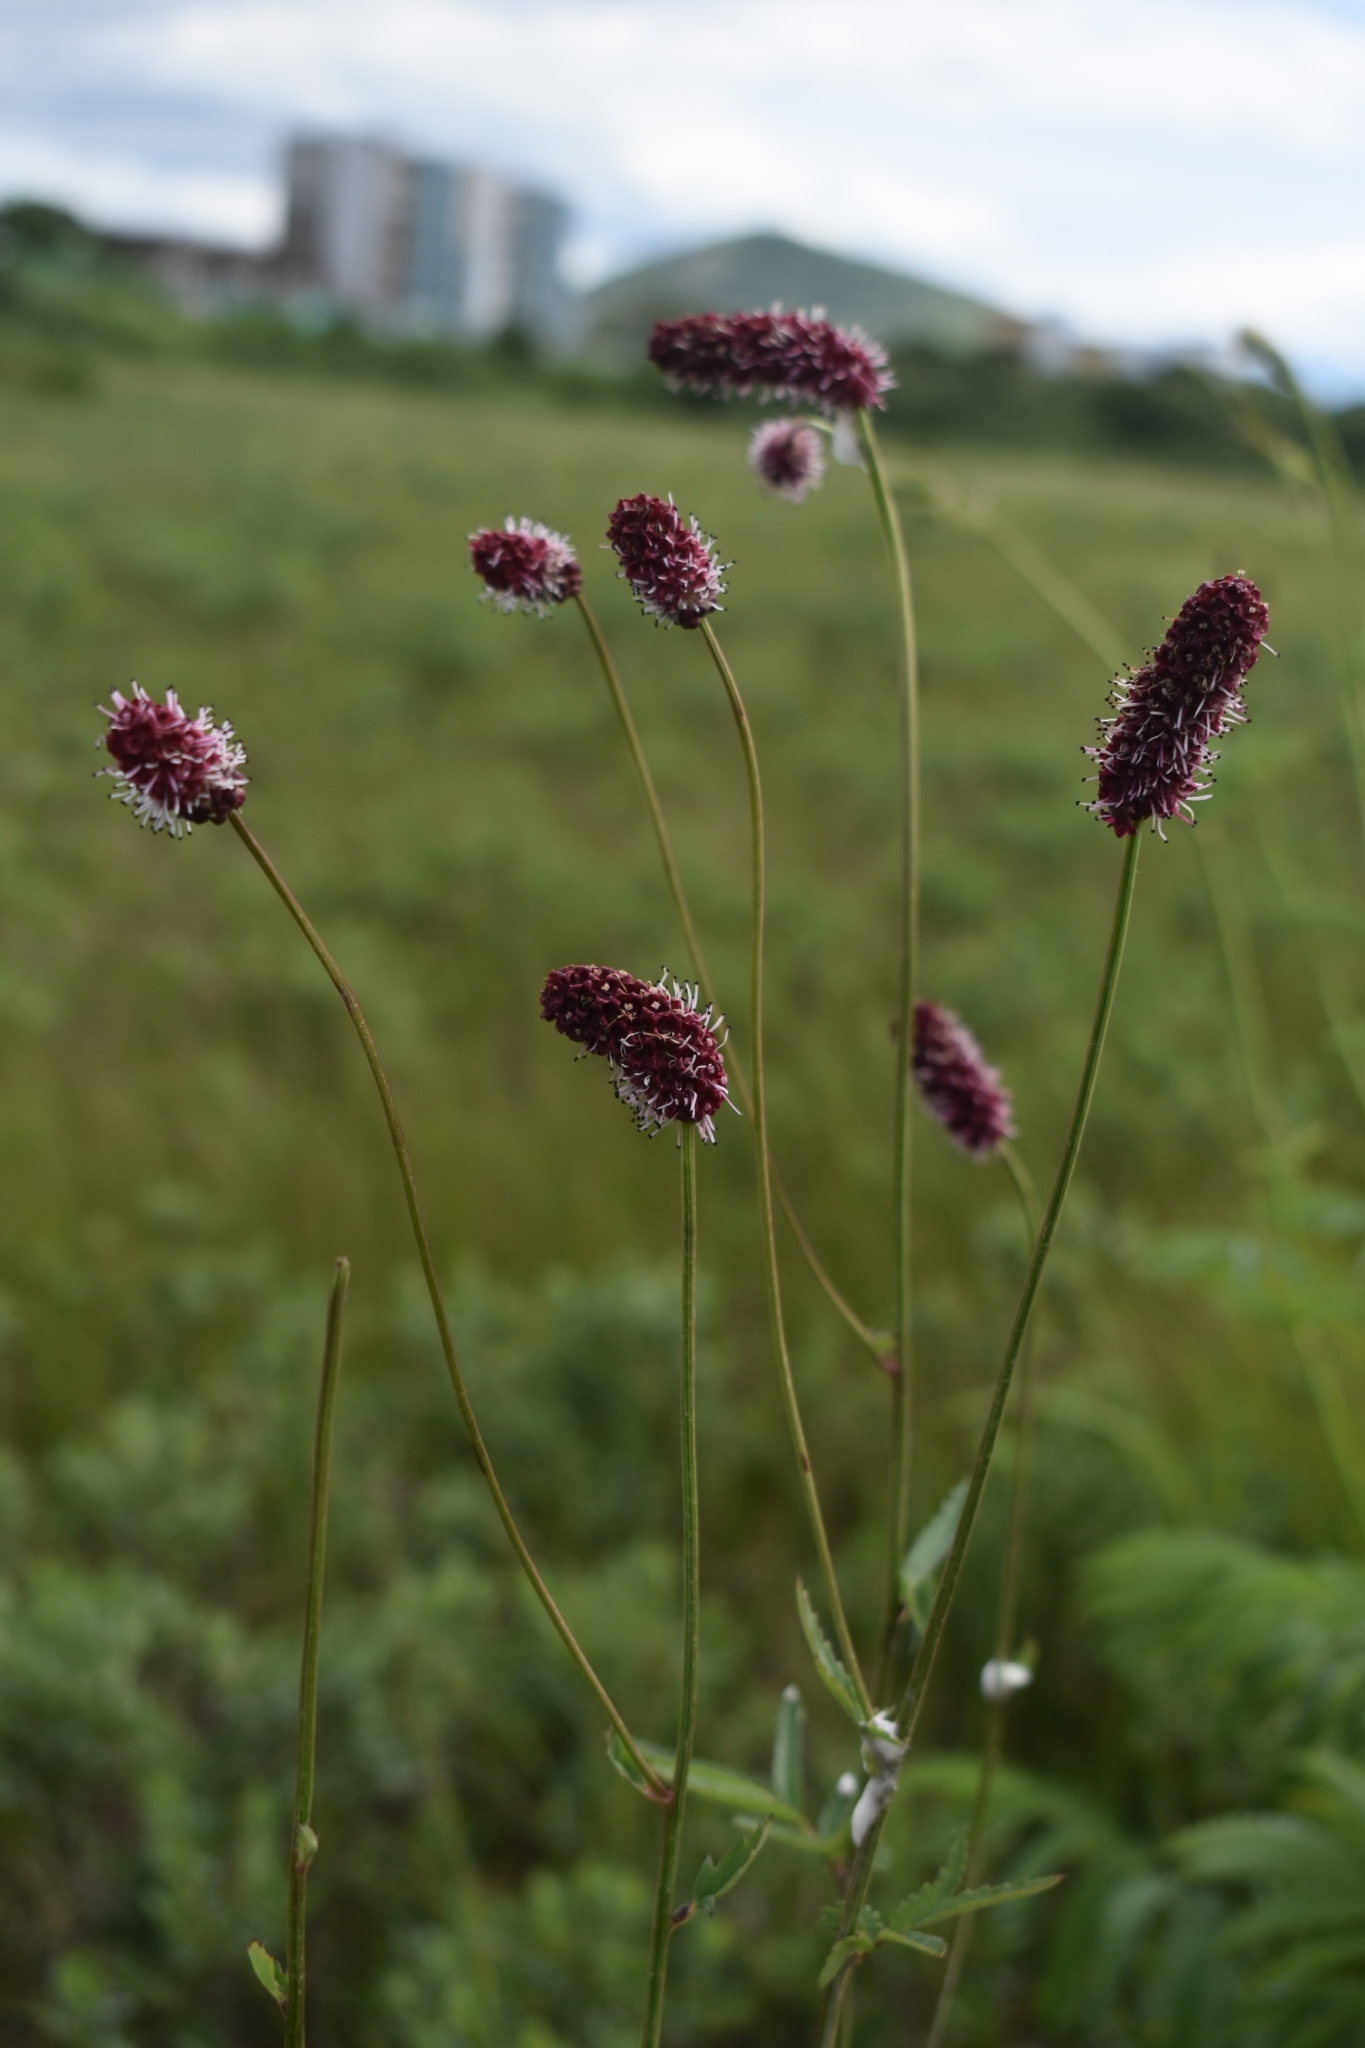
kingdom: Plantae
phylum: Tracheophyta
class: Magnoliopsida
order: Rosales
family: Rosaceae
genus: Poterium
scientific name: Poterium tenuifolium
